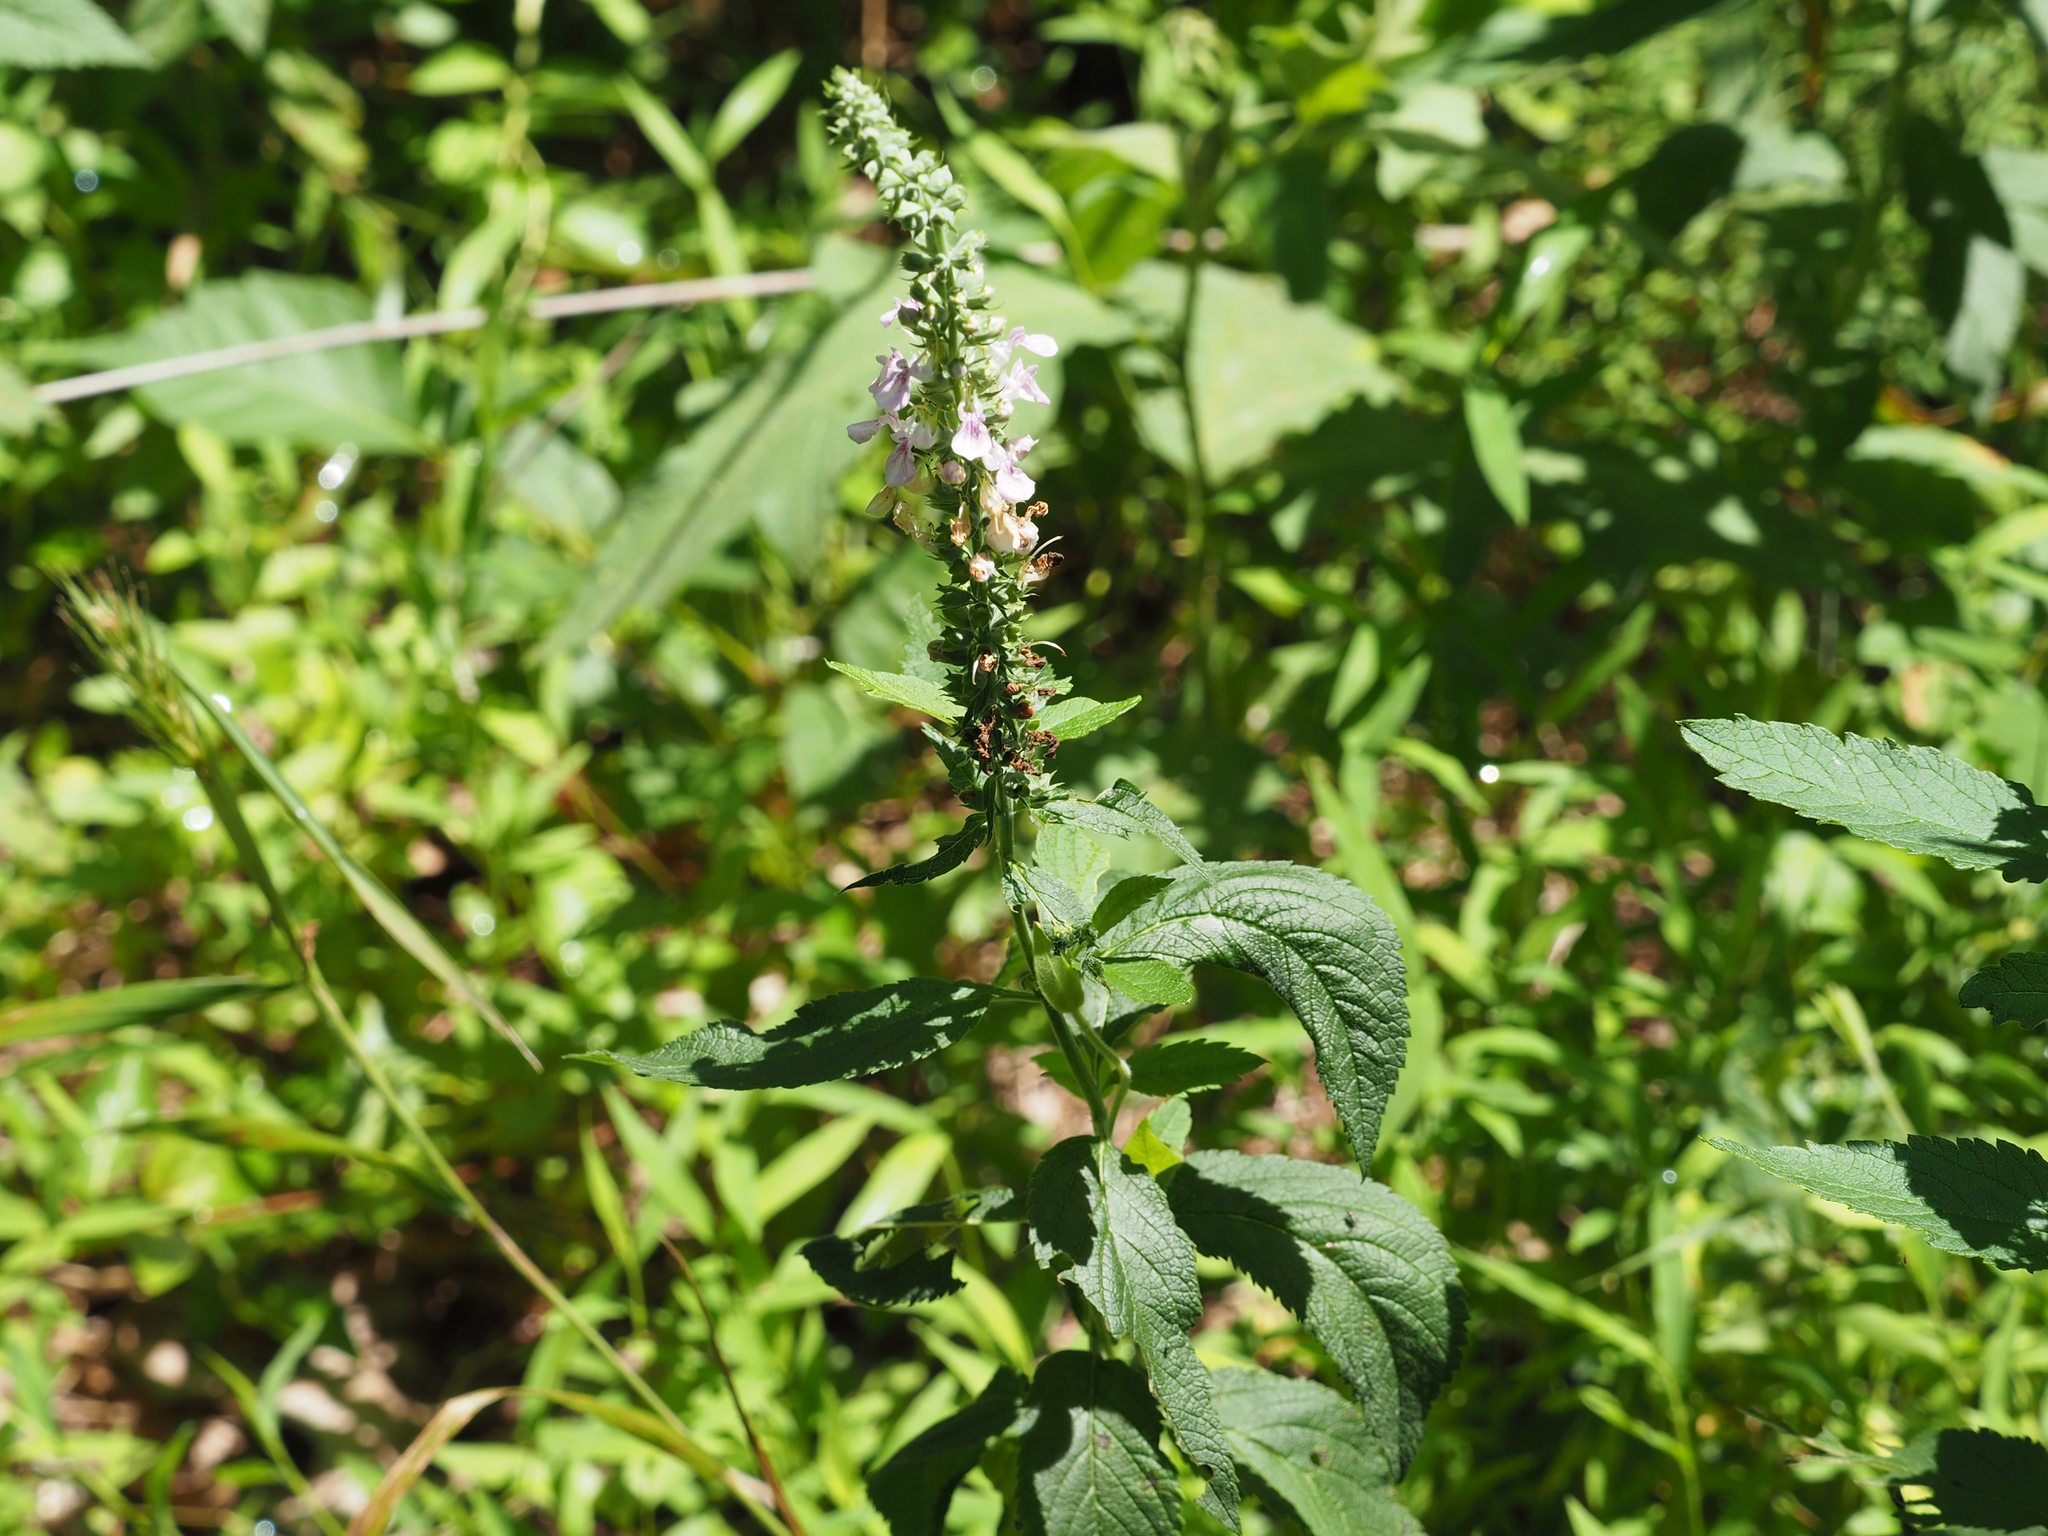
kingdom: Plantae
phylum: Tracheophyta
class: Magnoliopsida
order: Lamiales
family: Lamiaceae
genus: Teucrium
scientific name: Teucrium canadense
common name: American germander
